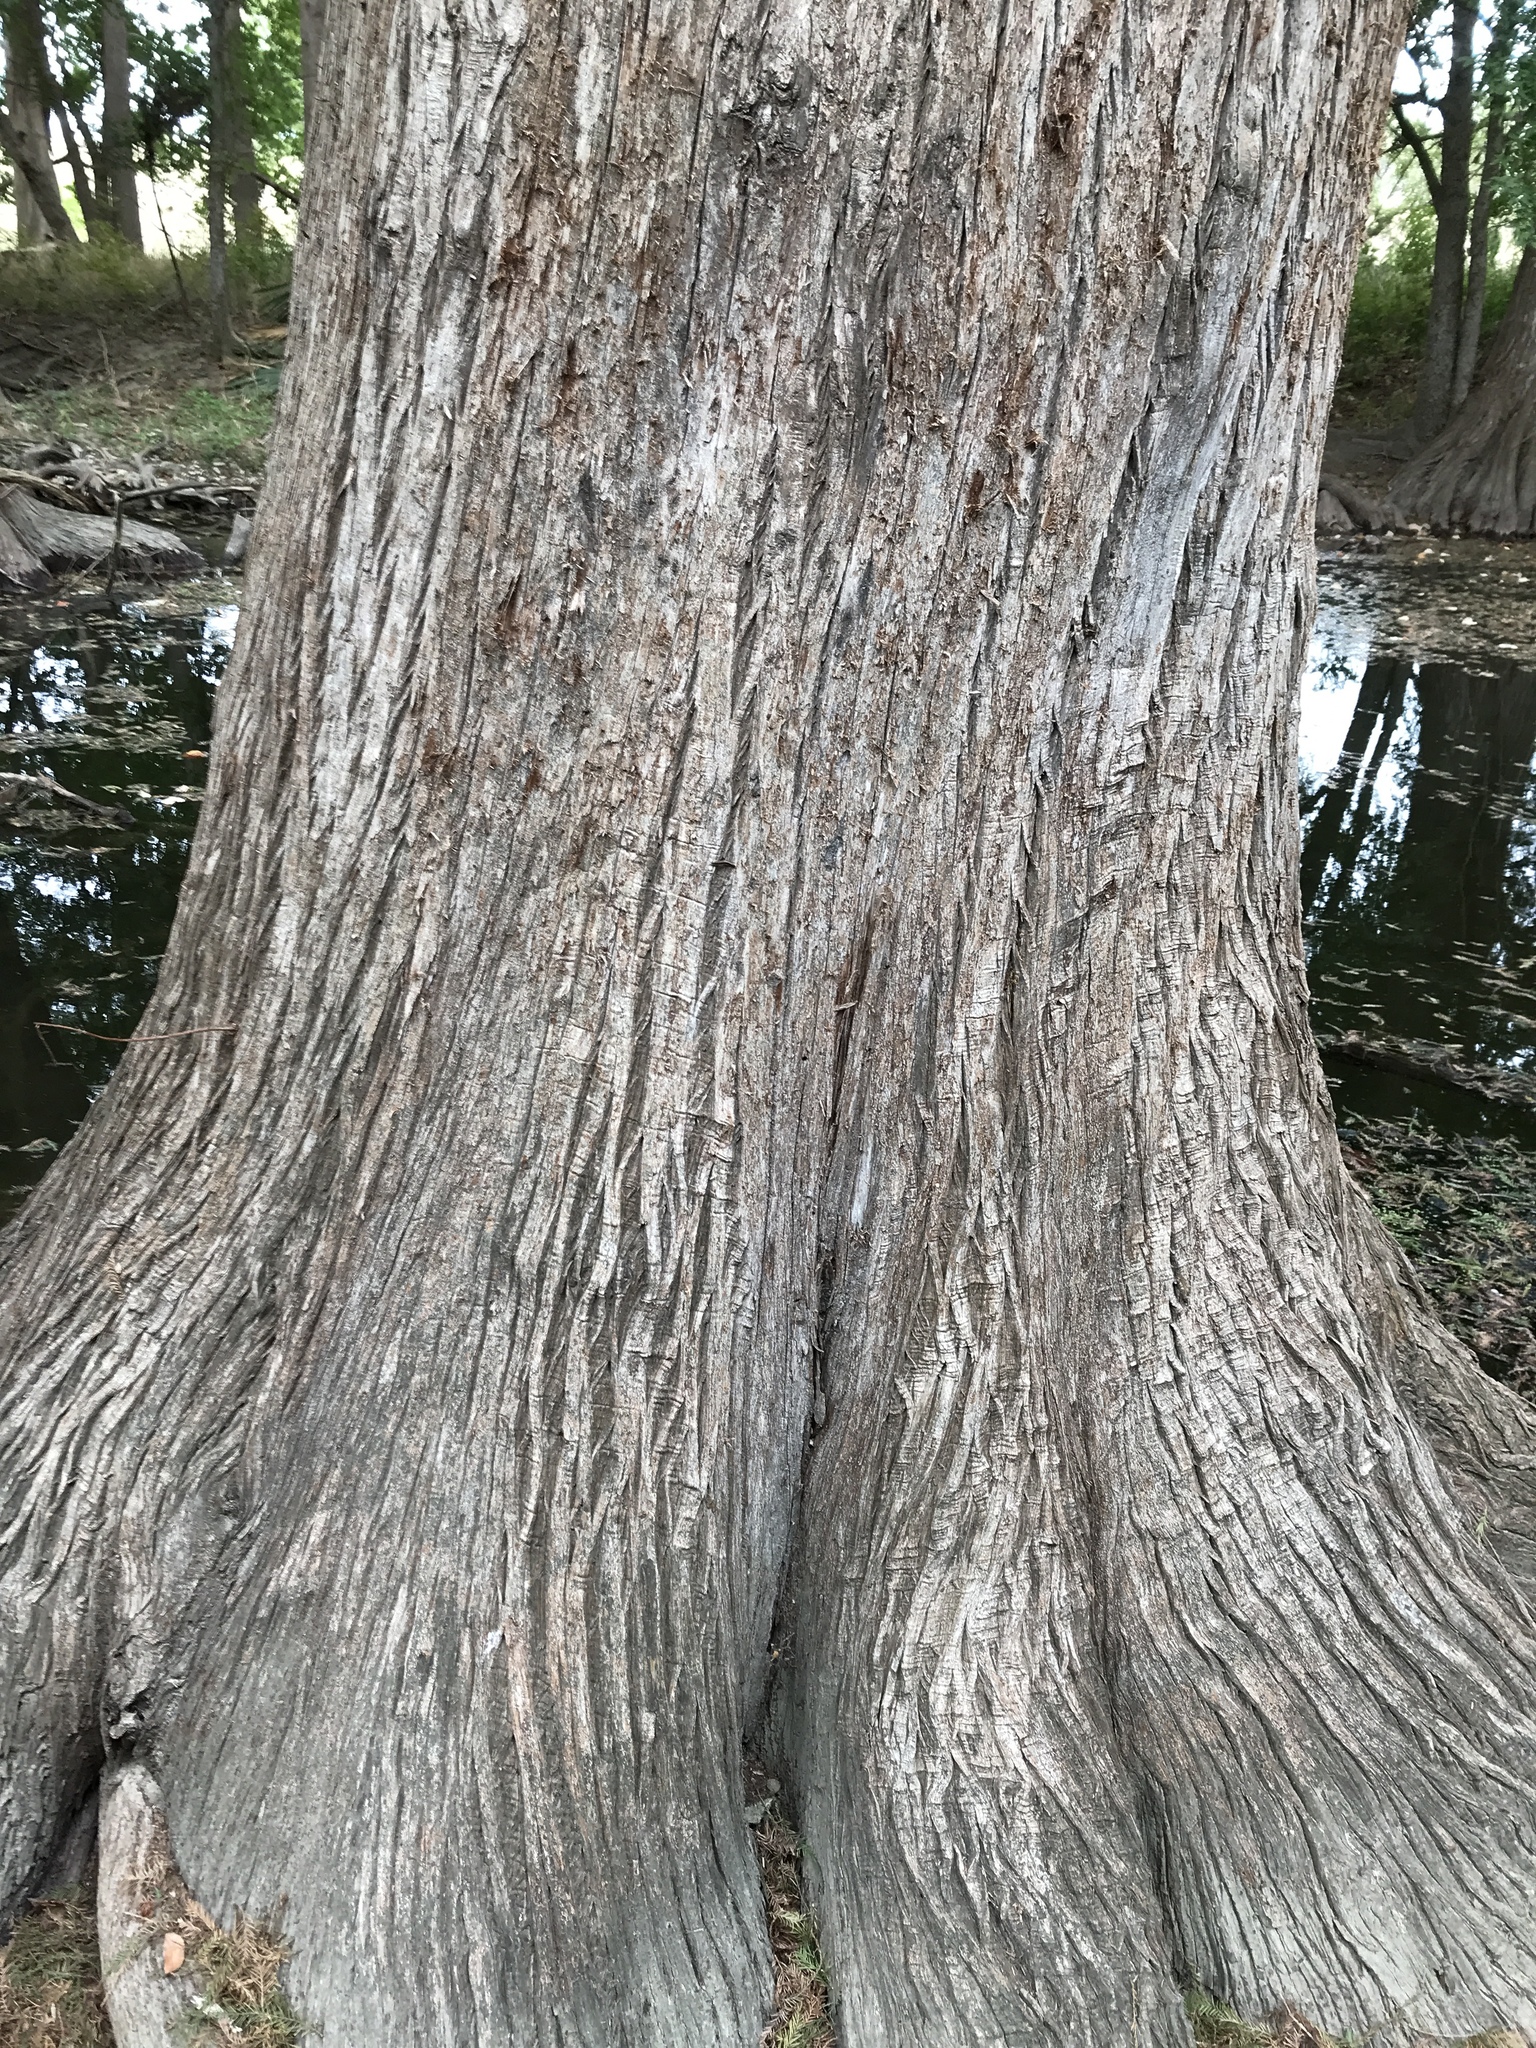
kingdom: Plantae
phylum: Tracheophyta
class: Pinopsida
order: Pinales
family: Cupressaceae
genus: Taxodium
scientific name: Taxodium distichum
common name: Bald cypress
